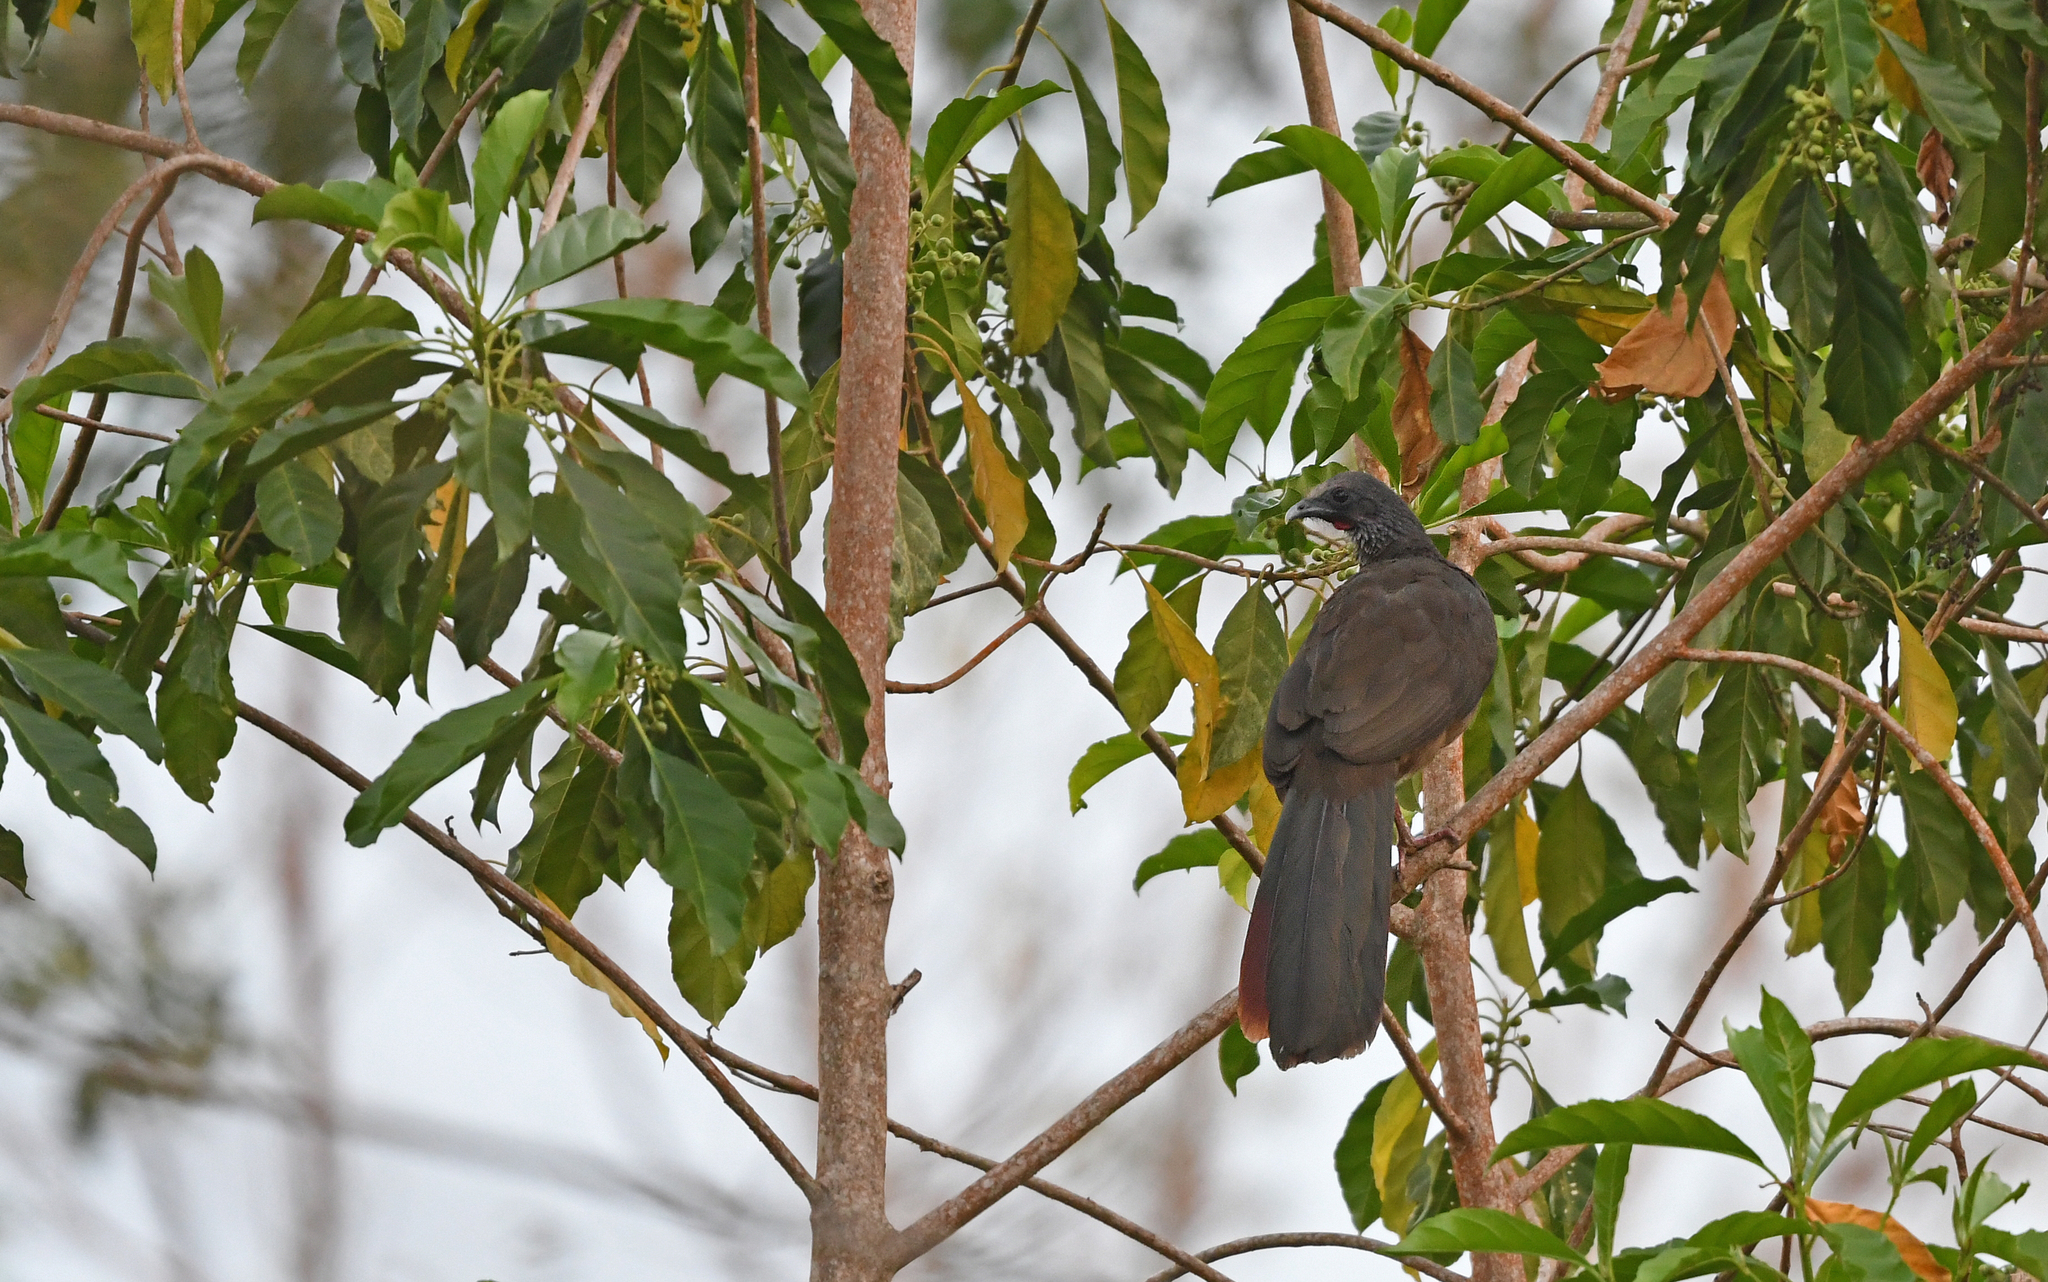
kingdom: Animalia
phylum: Chordata
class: Aves
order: Galliformes
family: Cracidae
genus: Ortalis
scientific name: Ortalis columbiana
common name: Colombian chachalaca
